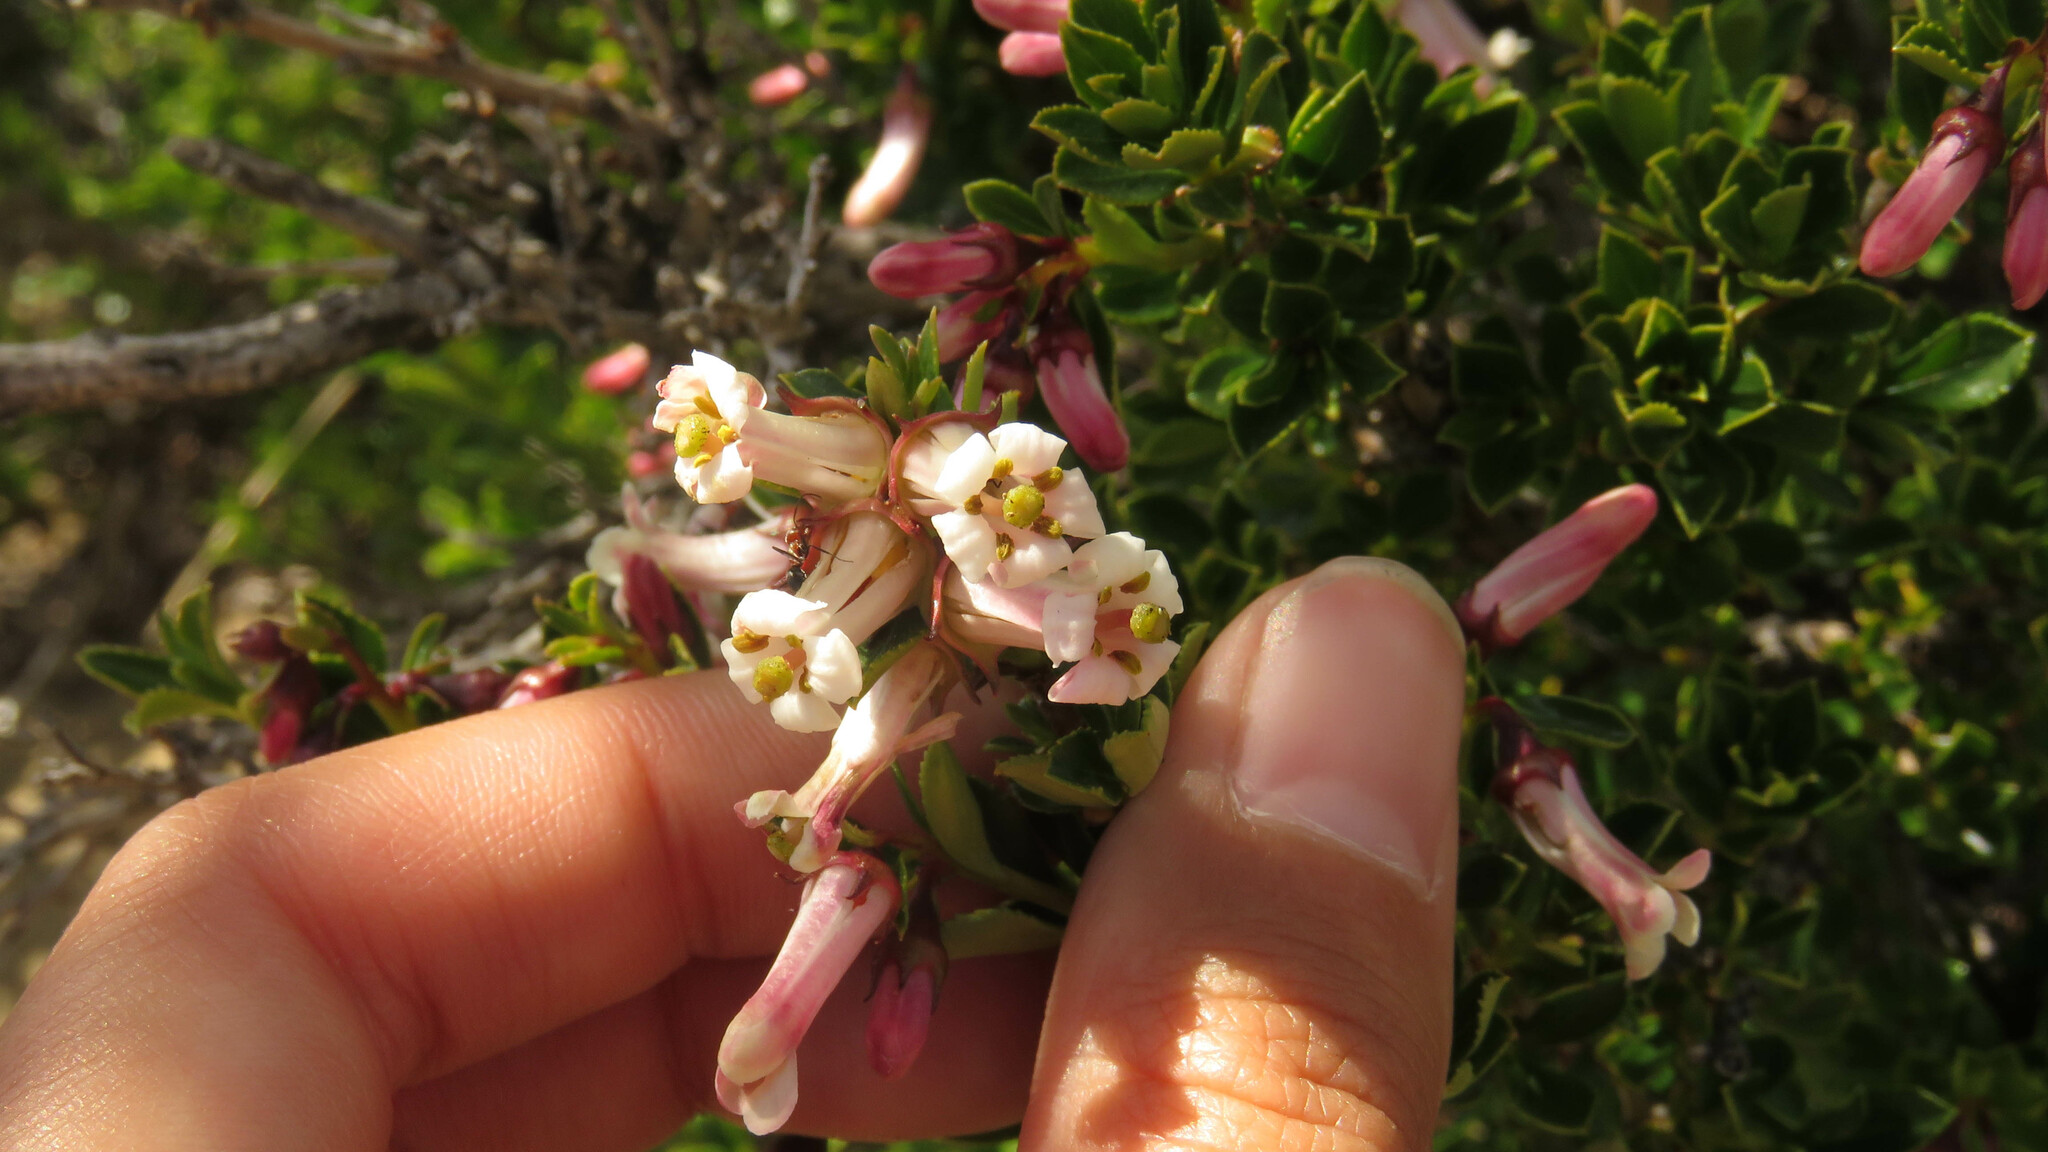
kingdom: Plantae
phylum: Tracheophyta
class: Magnoliopsida
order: Escalloniales
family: Escalloniaceae
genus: Escallonia
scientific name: Escallonia alpina
